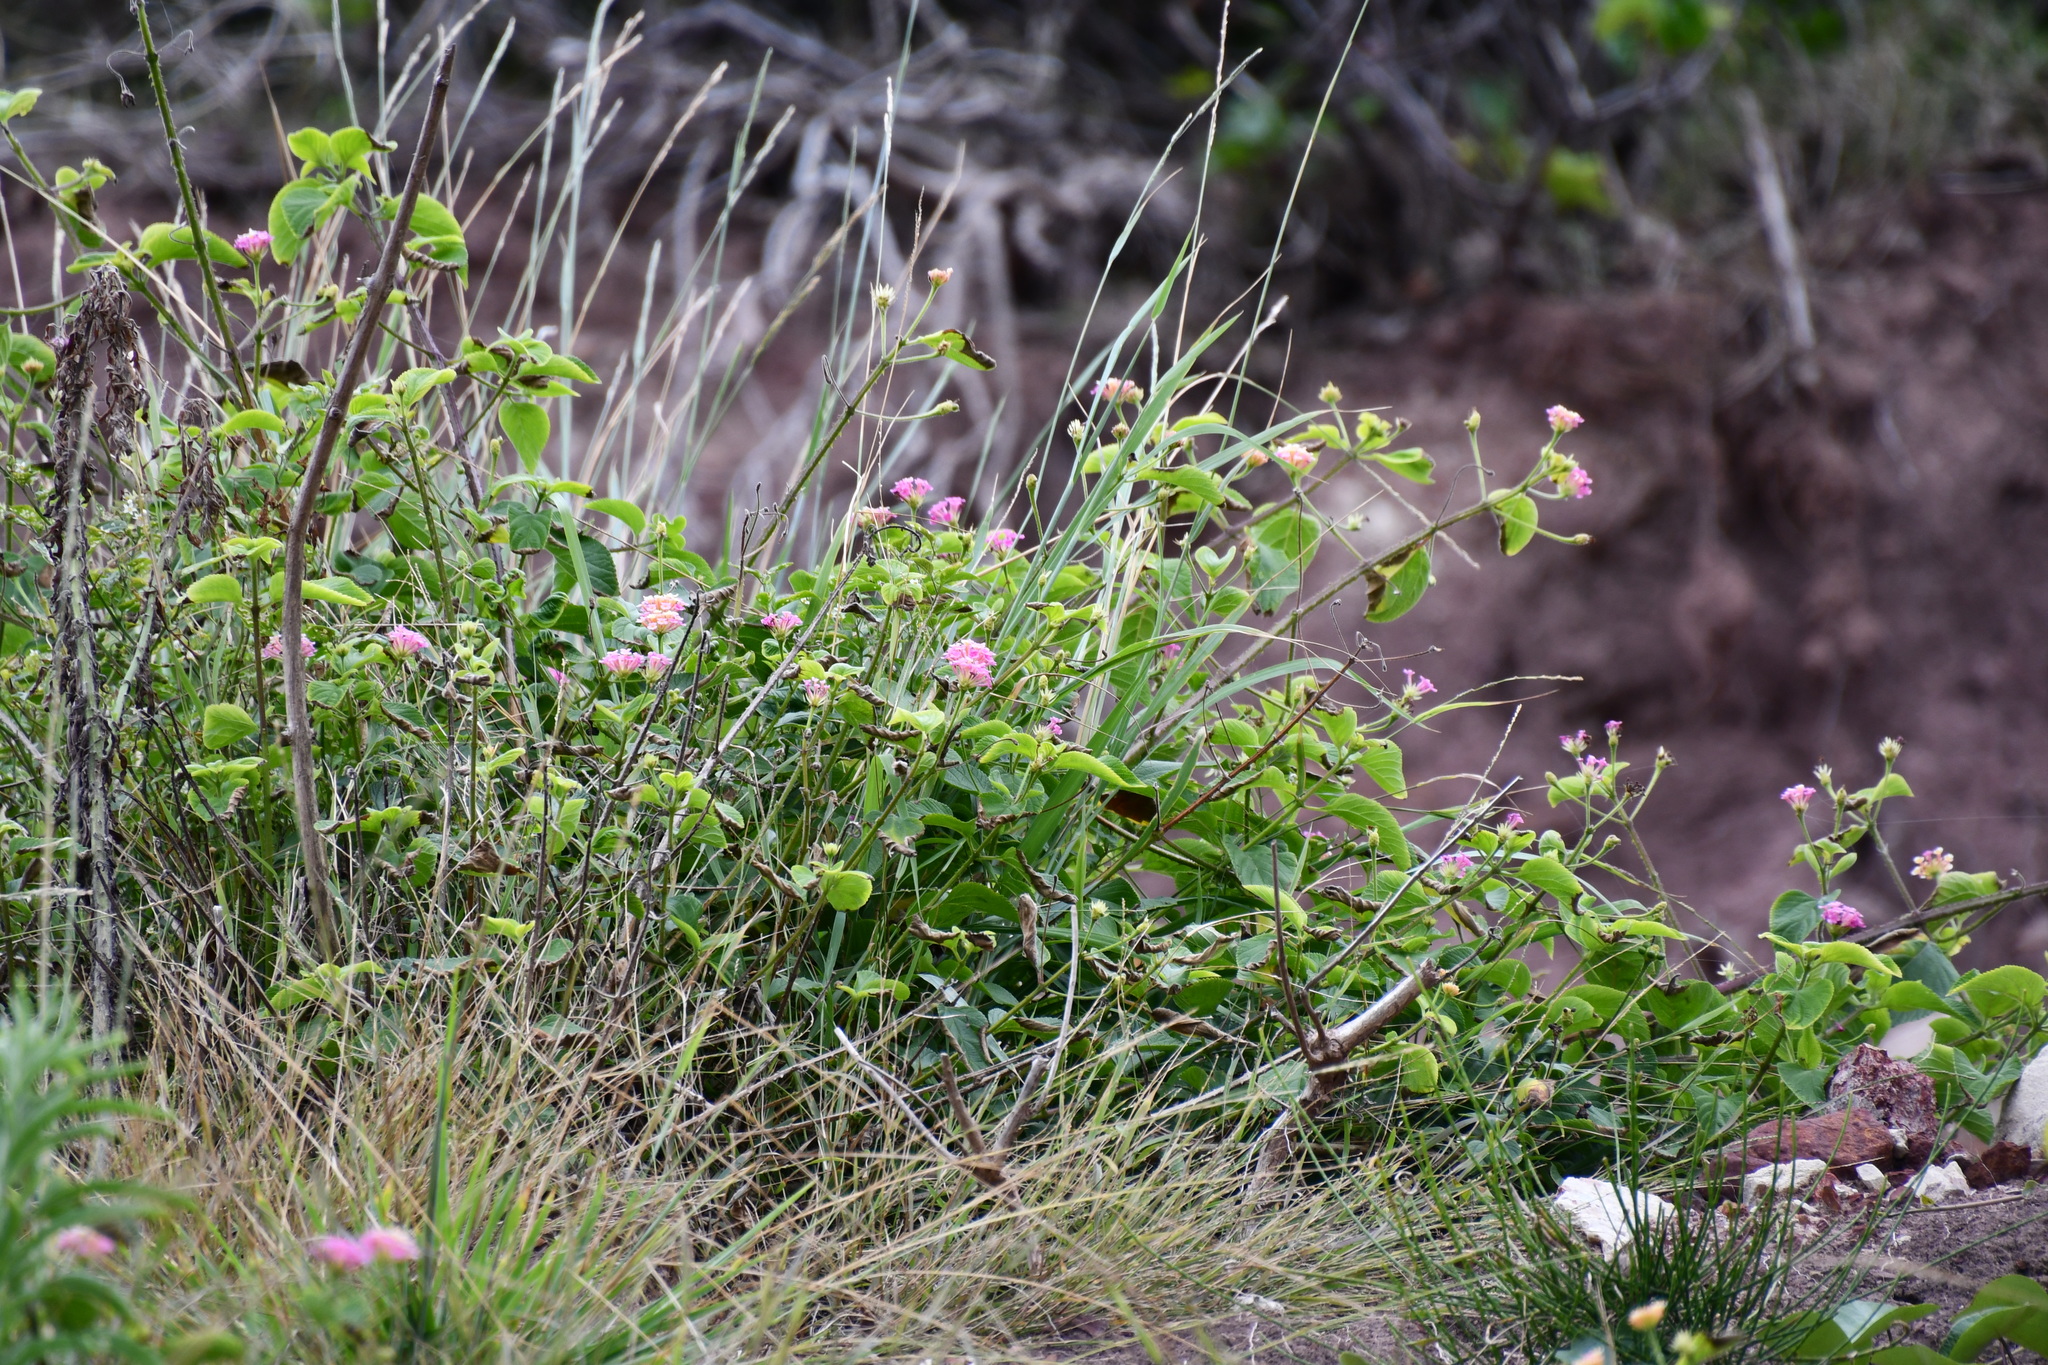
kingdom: Plantae
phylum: Tracheophyta
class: Magnoliopsida
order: Lamiales
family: Verbenaceae
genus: Lantana
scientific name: Lantana camara
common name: Lantana
